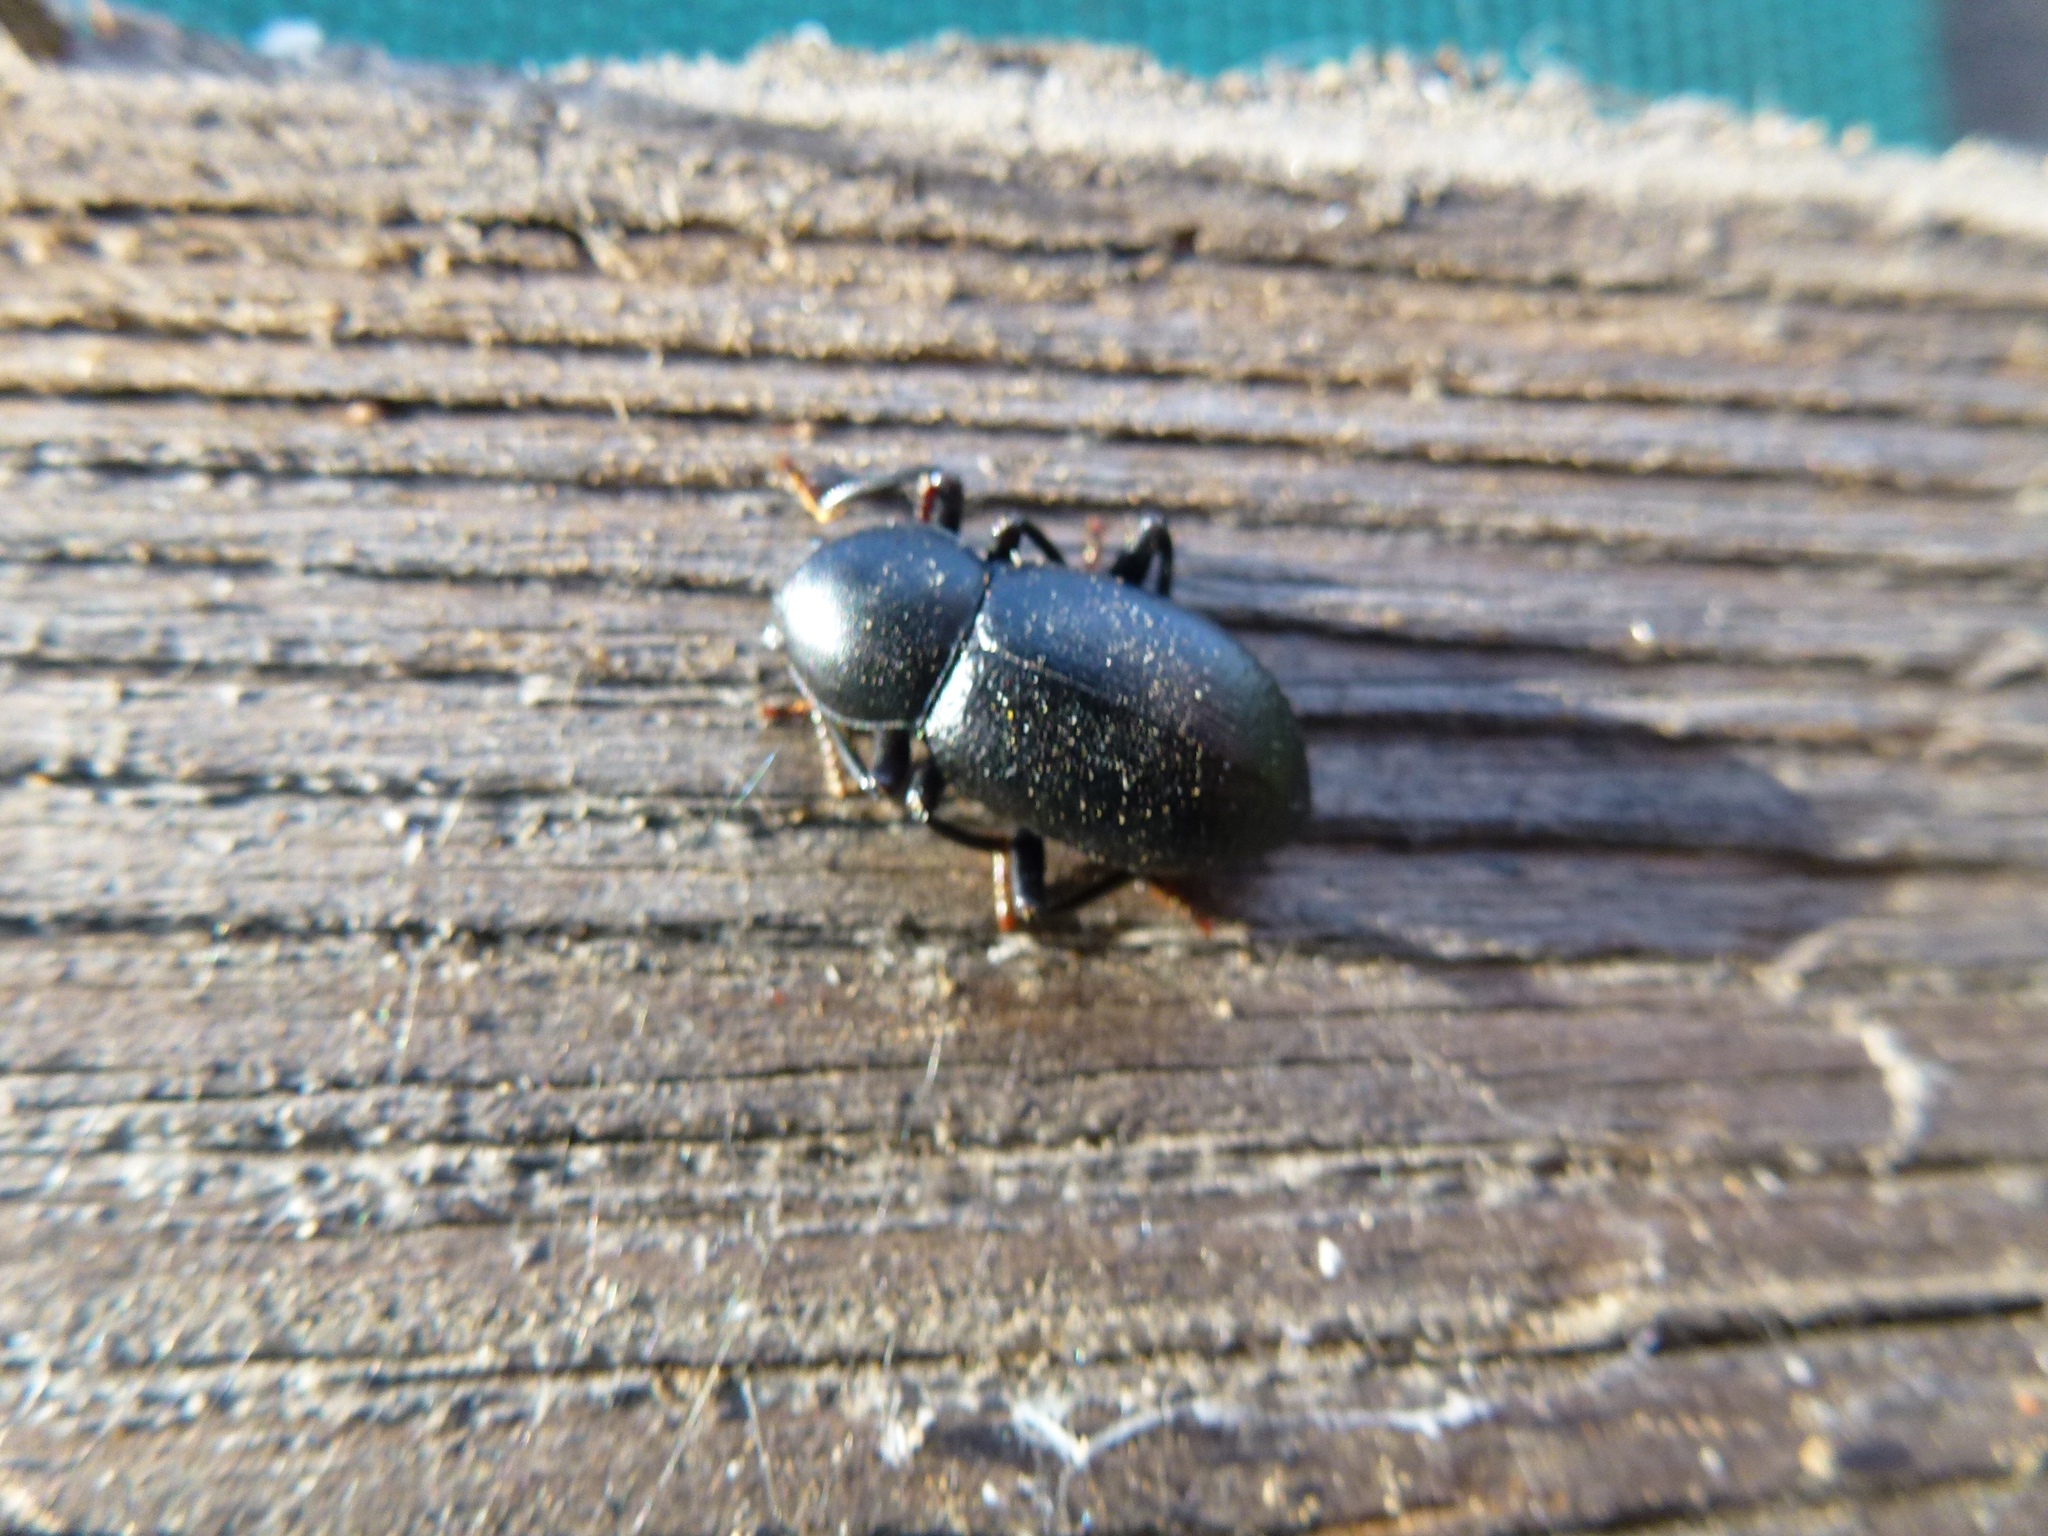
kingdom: Animalia
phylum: Arthropoda
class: Insecta
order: Coleoptera
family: Tenebrionidae
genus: Cibdelis
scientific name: Cibdelis
